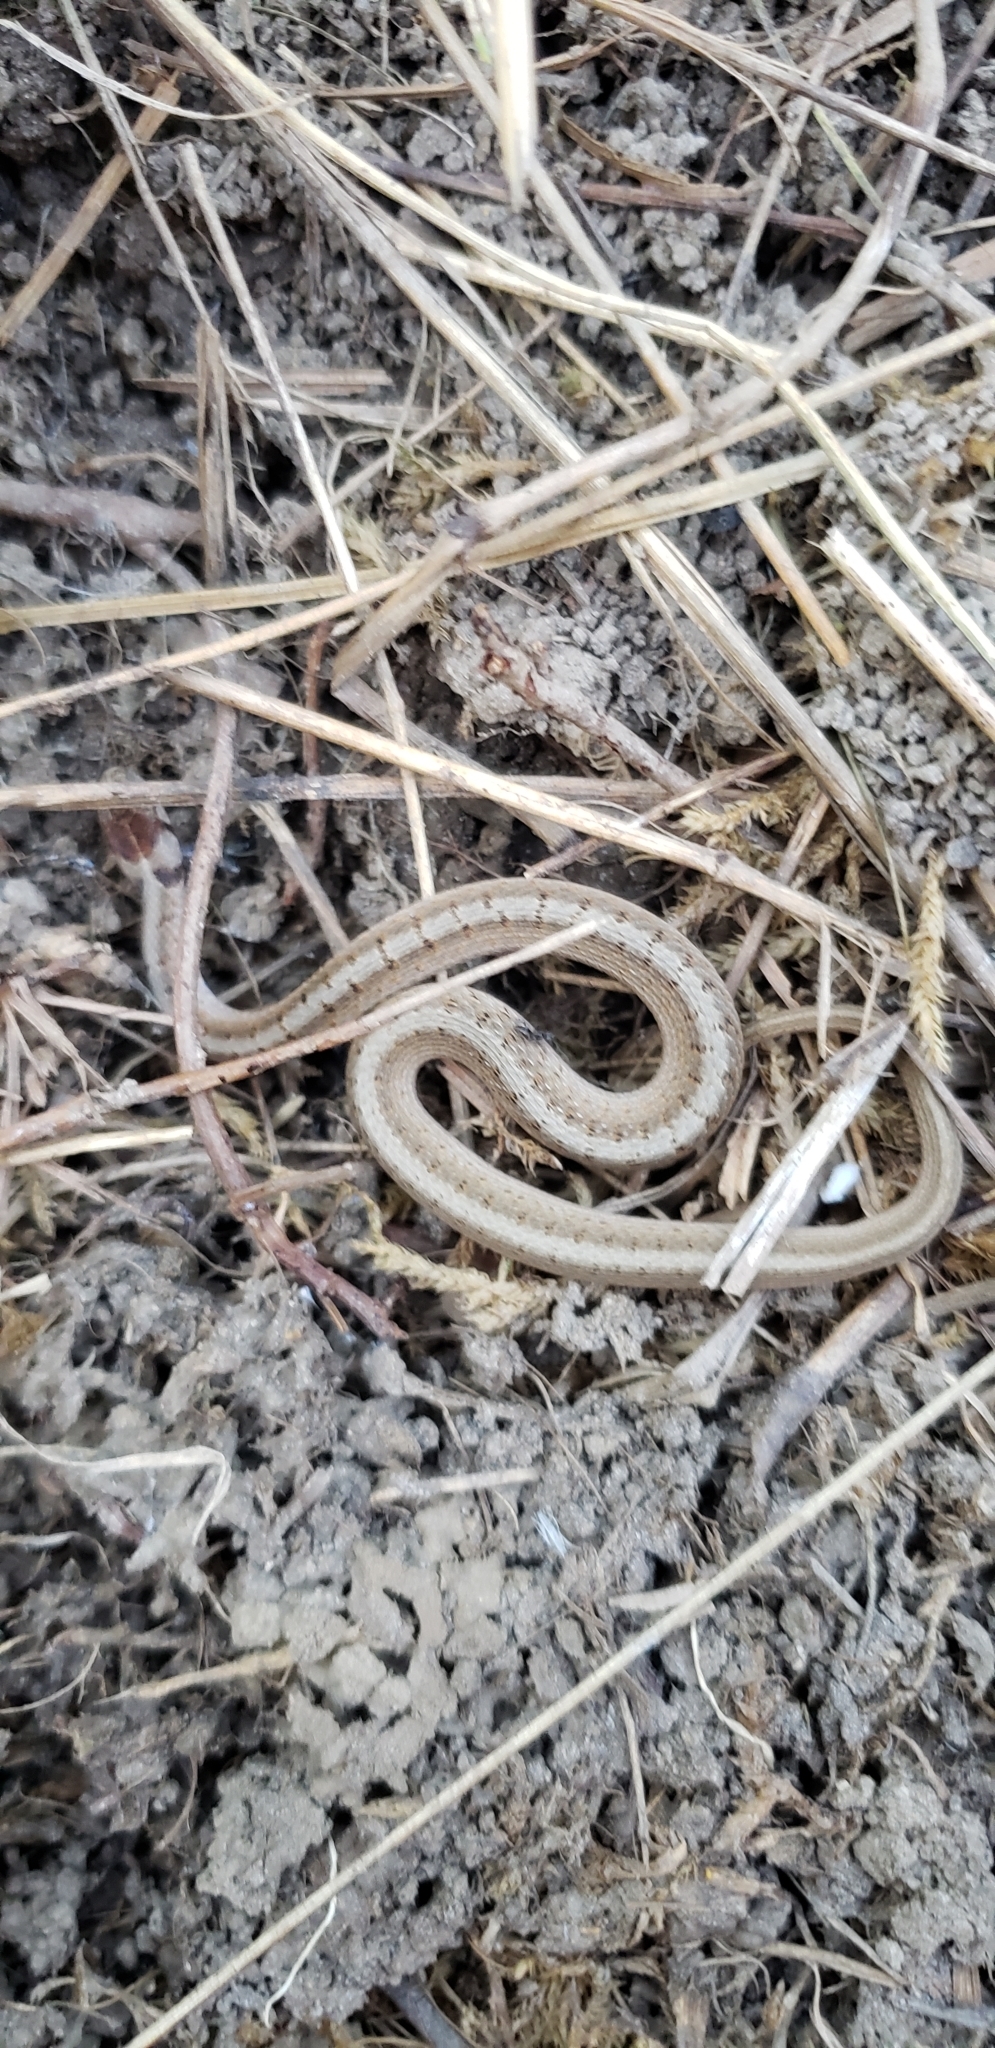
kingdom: Animalia
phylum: Chordata
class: Squamata
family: Colubridae
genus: Storeria
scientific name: Storeria dekayi
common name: (dekay’s) brown snake
